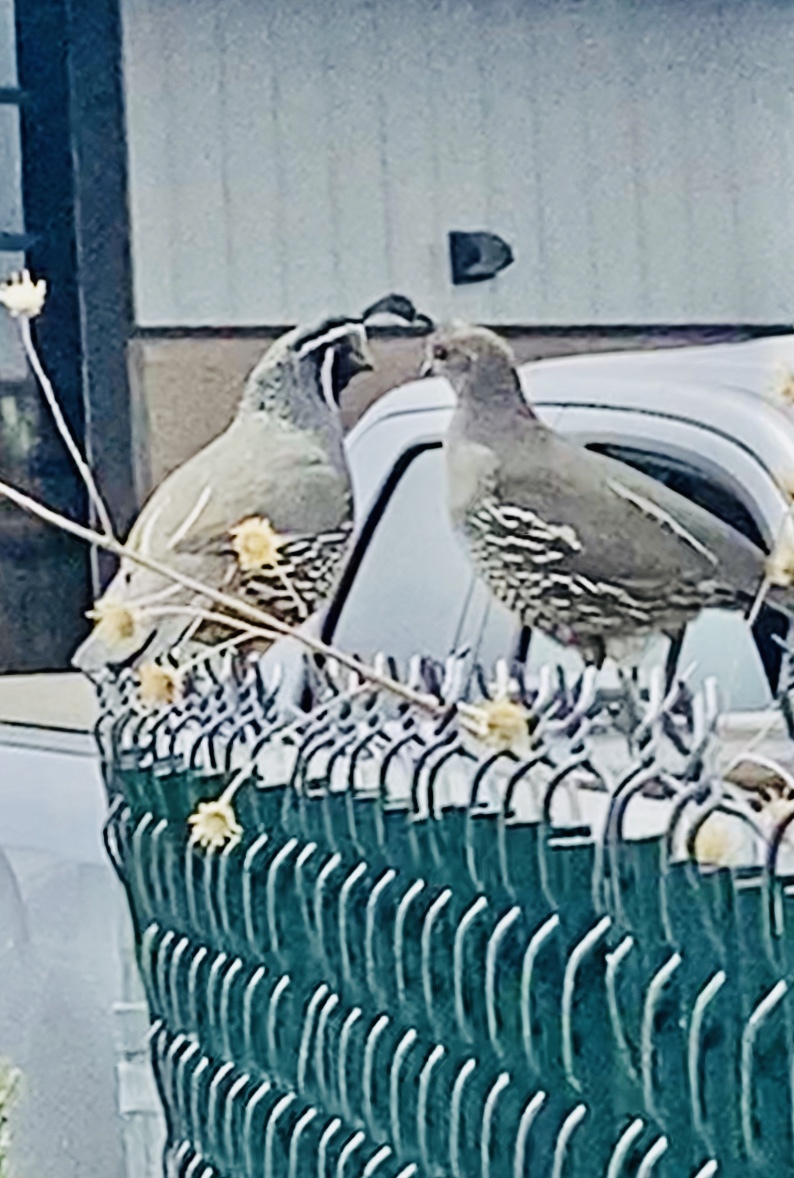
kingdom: Animalia
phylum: Chordata
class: Aves
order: Galliformes
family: Odontophoridae
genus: Callipepla
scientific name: Callipepla californica
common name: California quail
